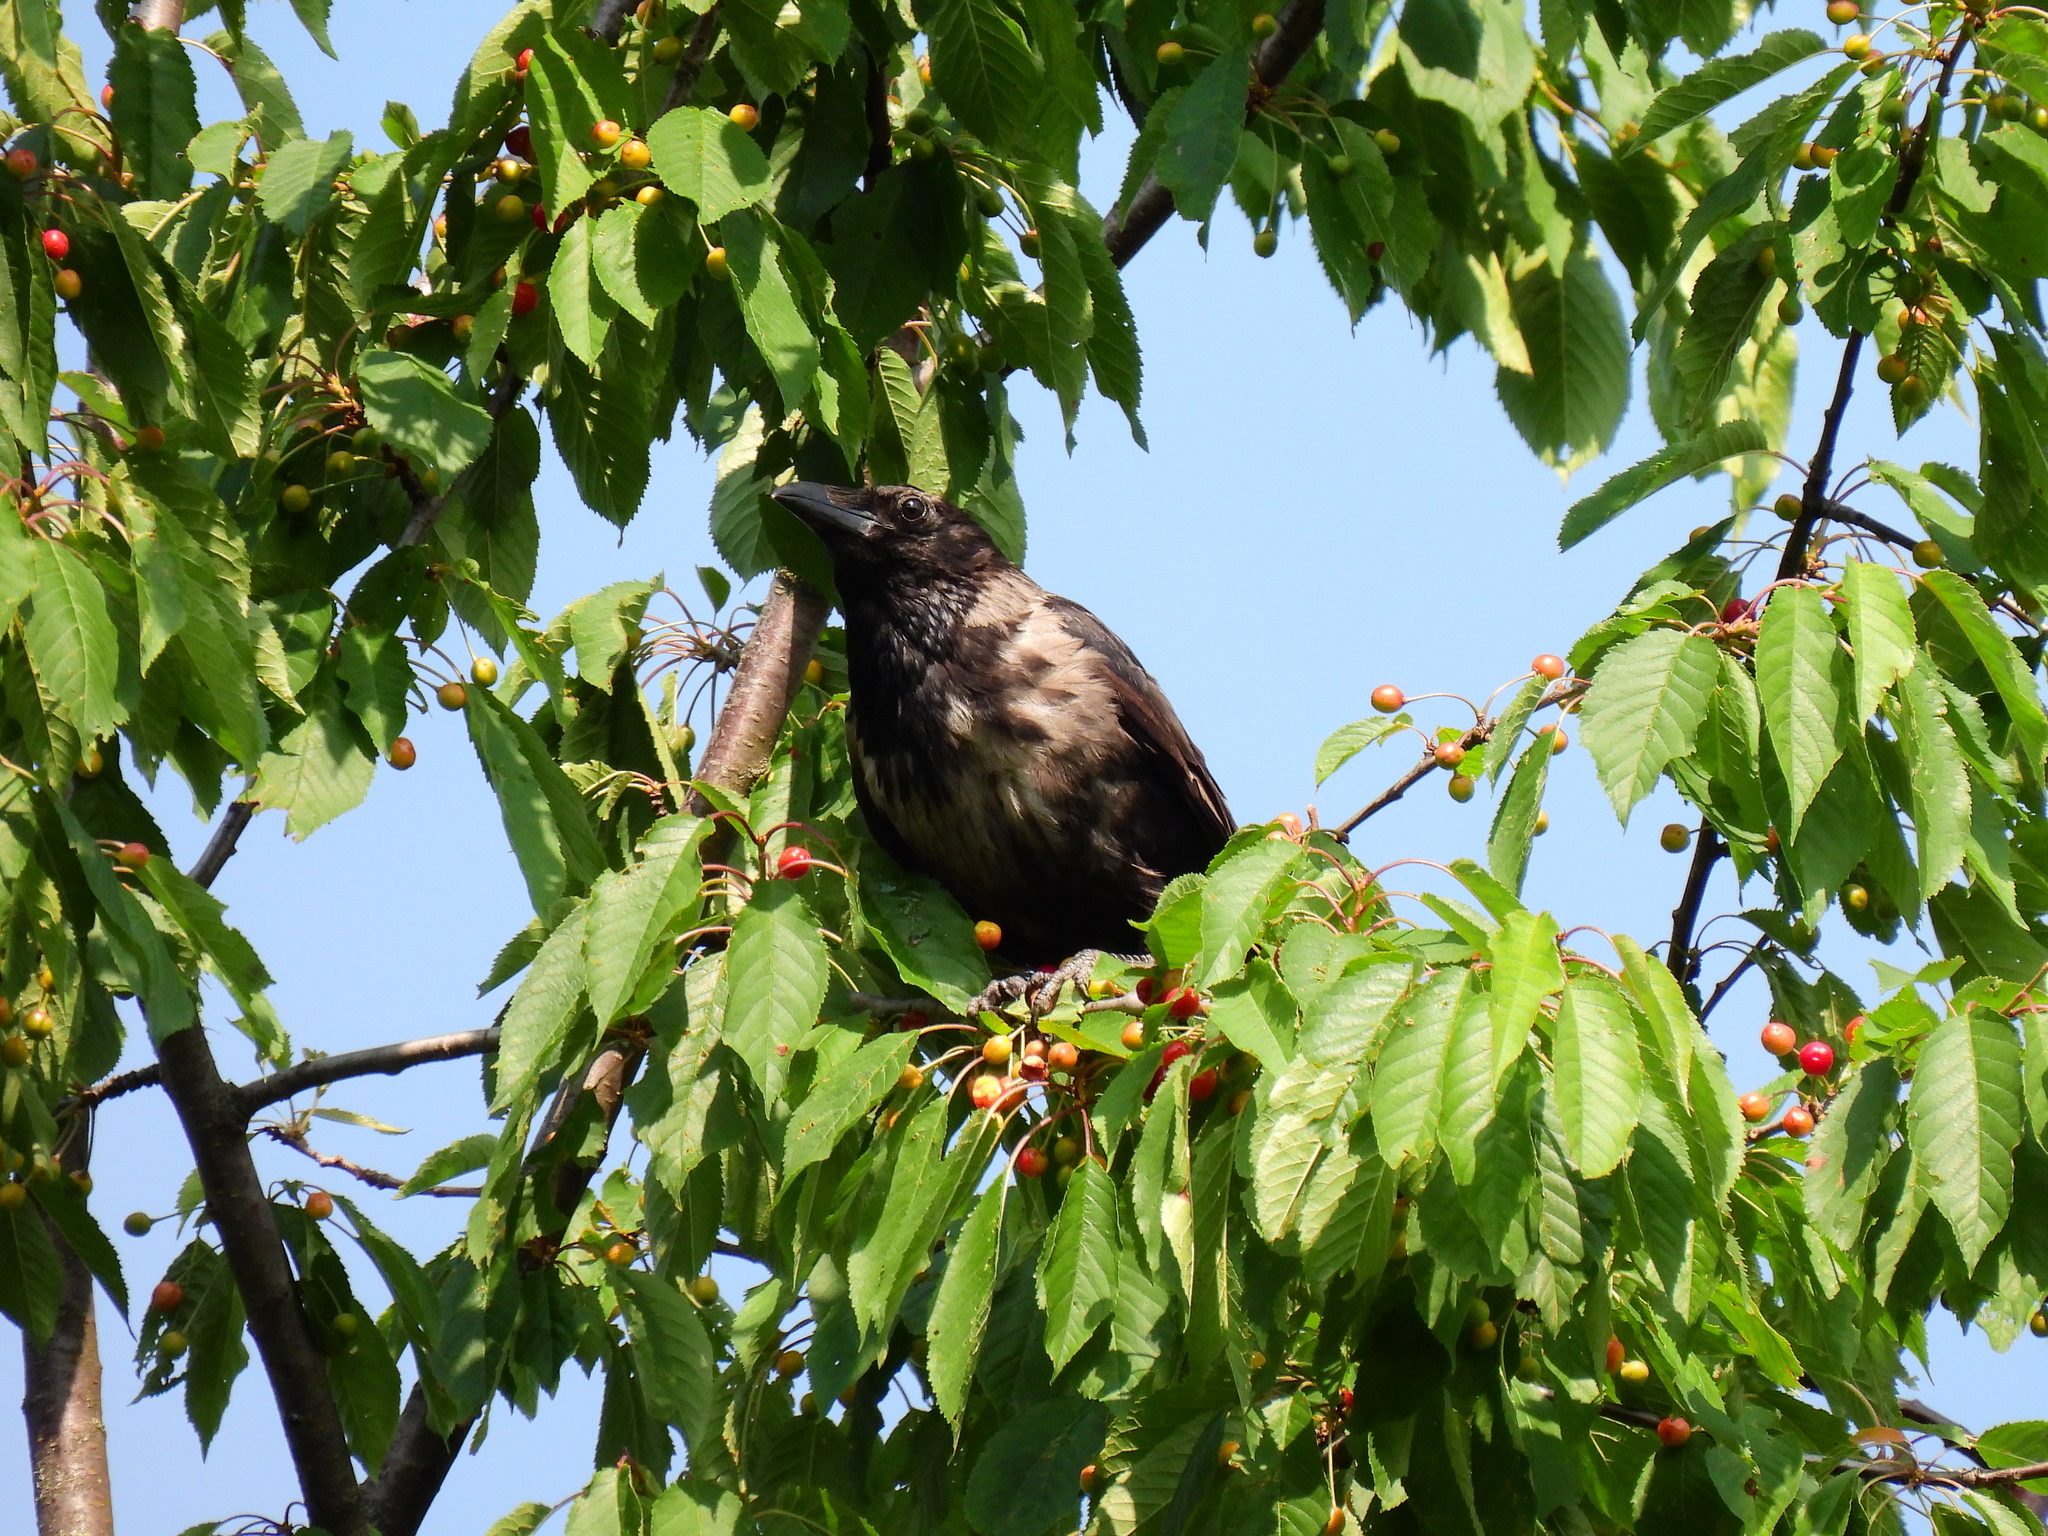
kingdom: Animalia
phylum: Chordata
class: Aves
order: Passeriformes
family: Corvidae
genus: Corvus
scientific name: Corvus
